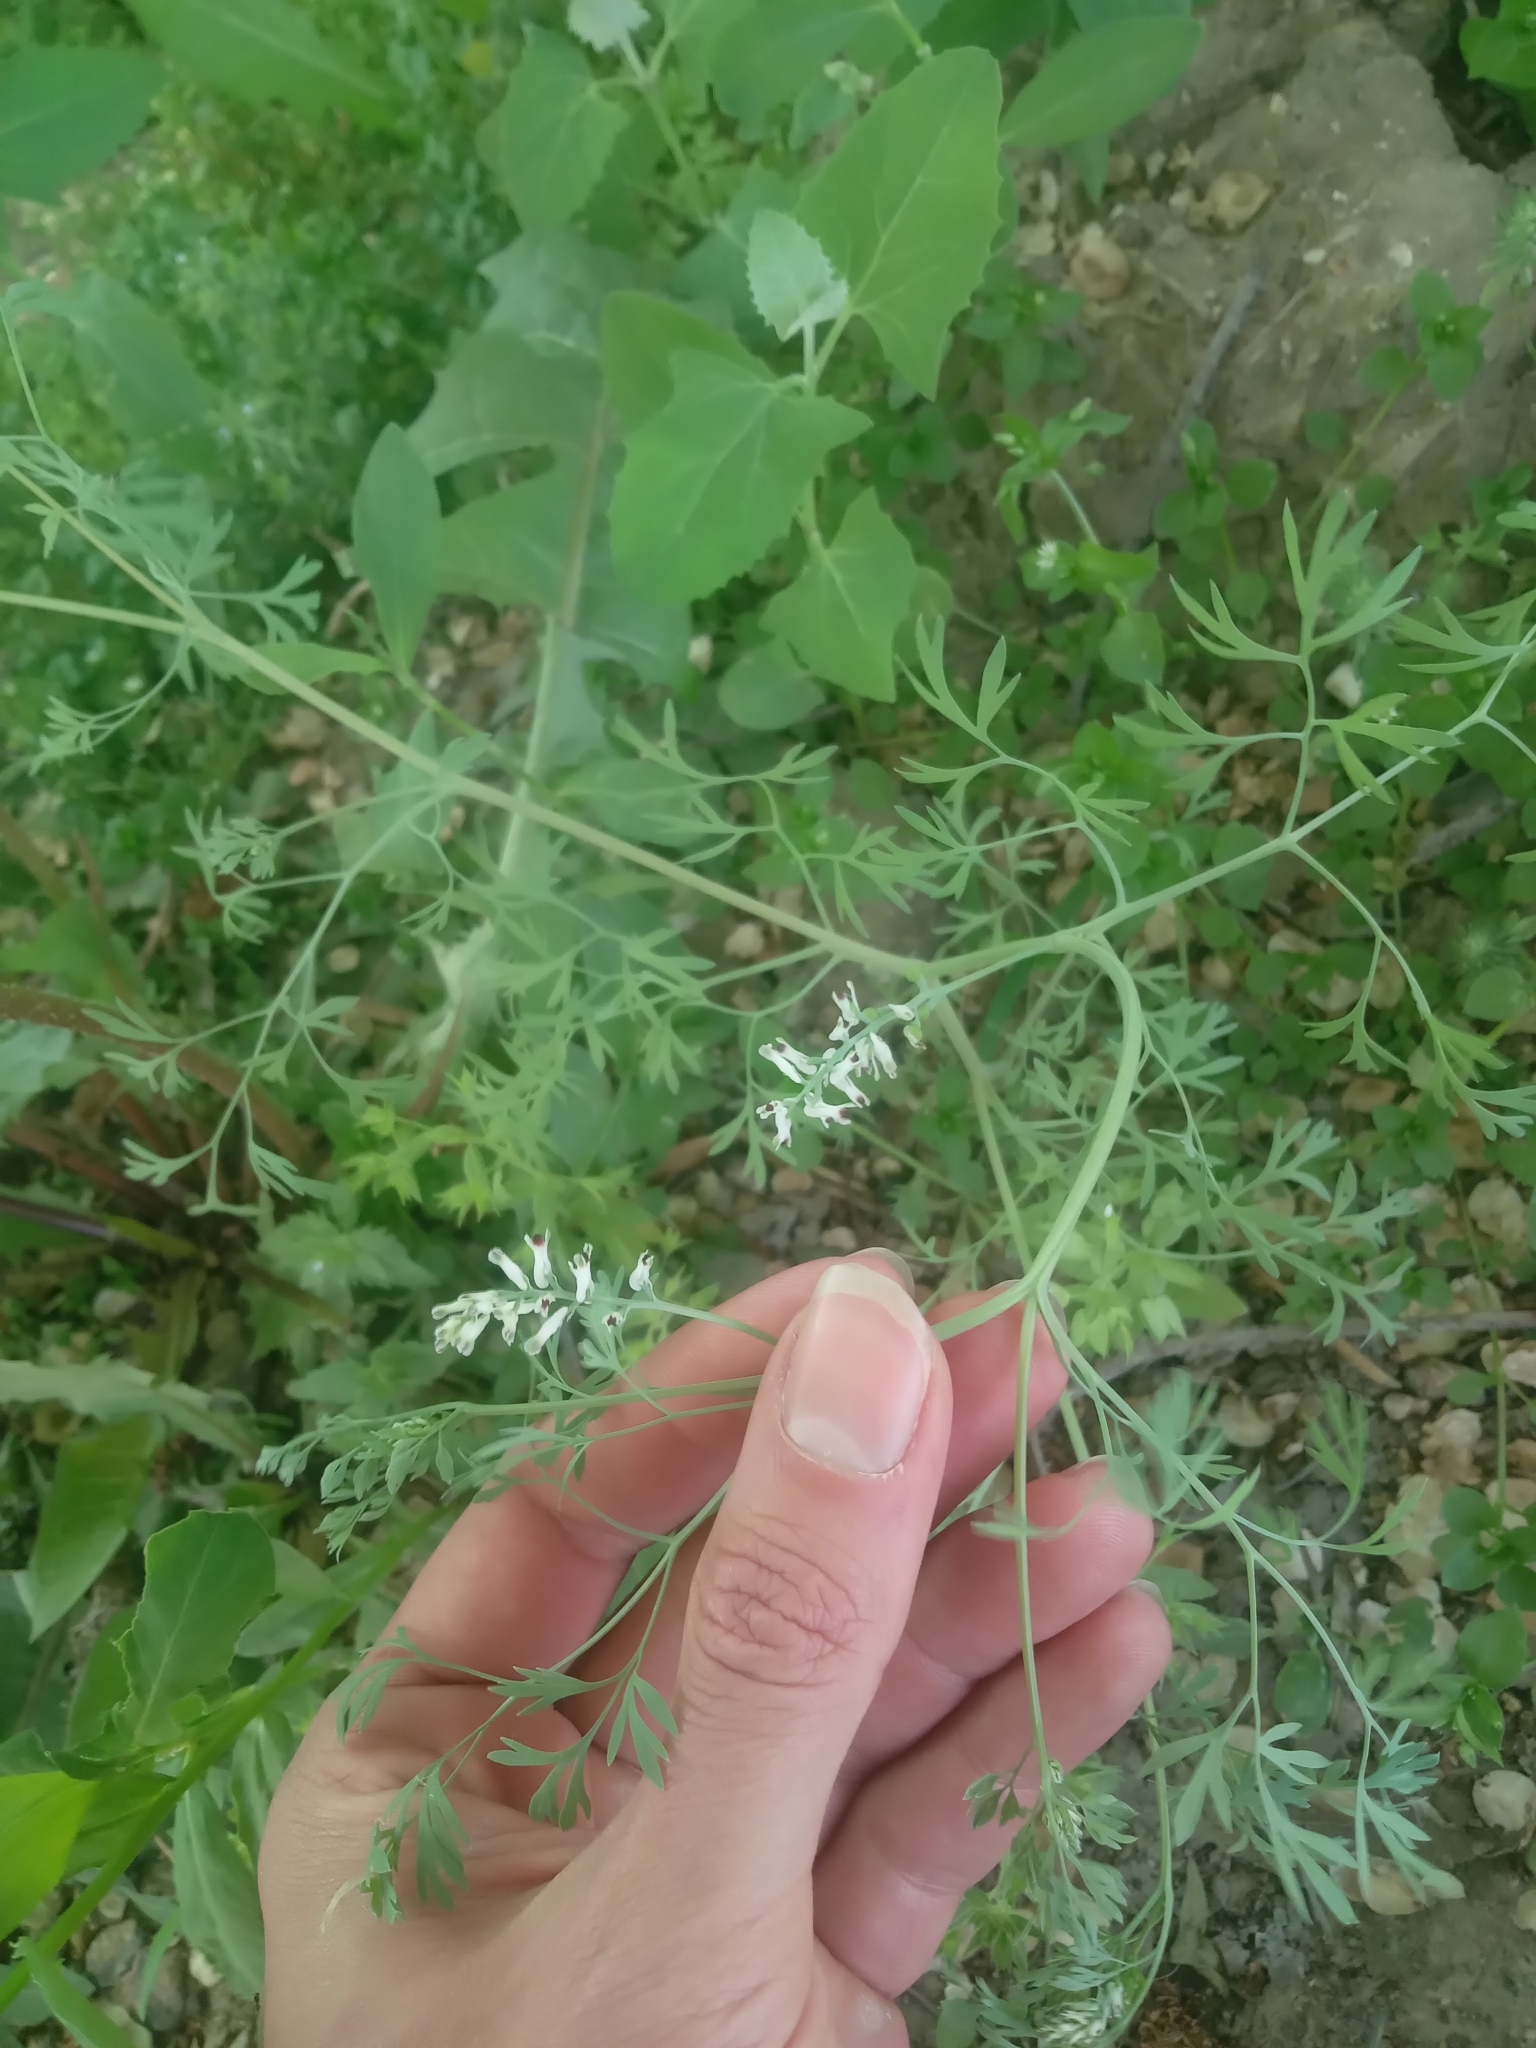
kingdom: Plantae
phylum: Tracheophyta
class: Magnoliopsida
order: Ranunculales
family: Papaveraceae
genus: Fumaria
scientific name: Fumaria vaillantii
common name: Few-flowered fumitory
